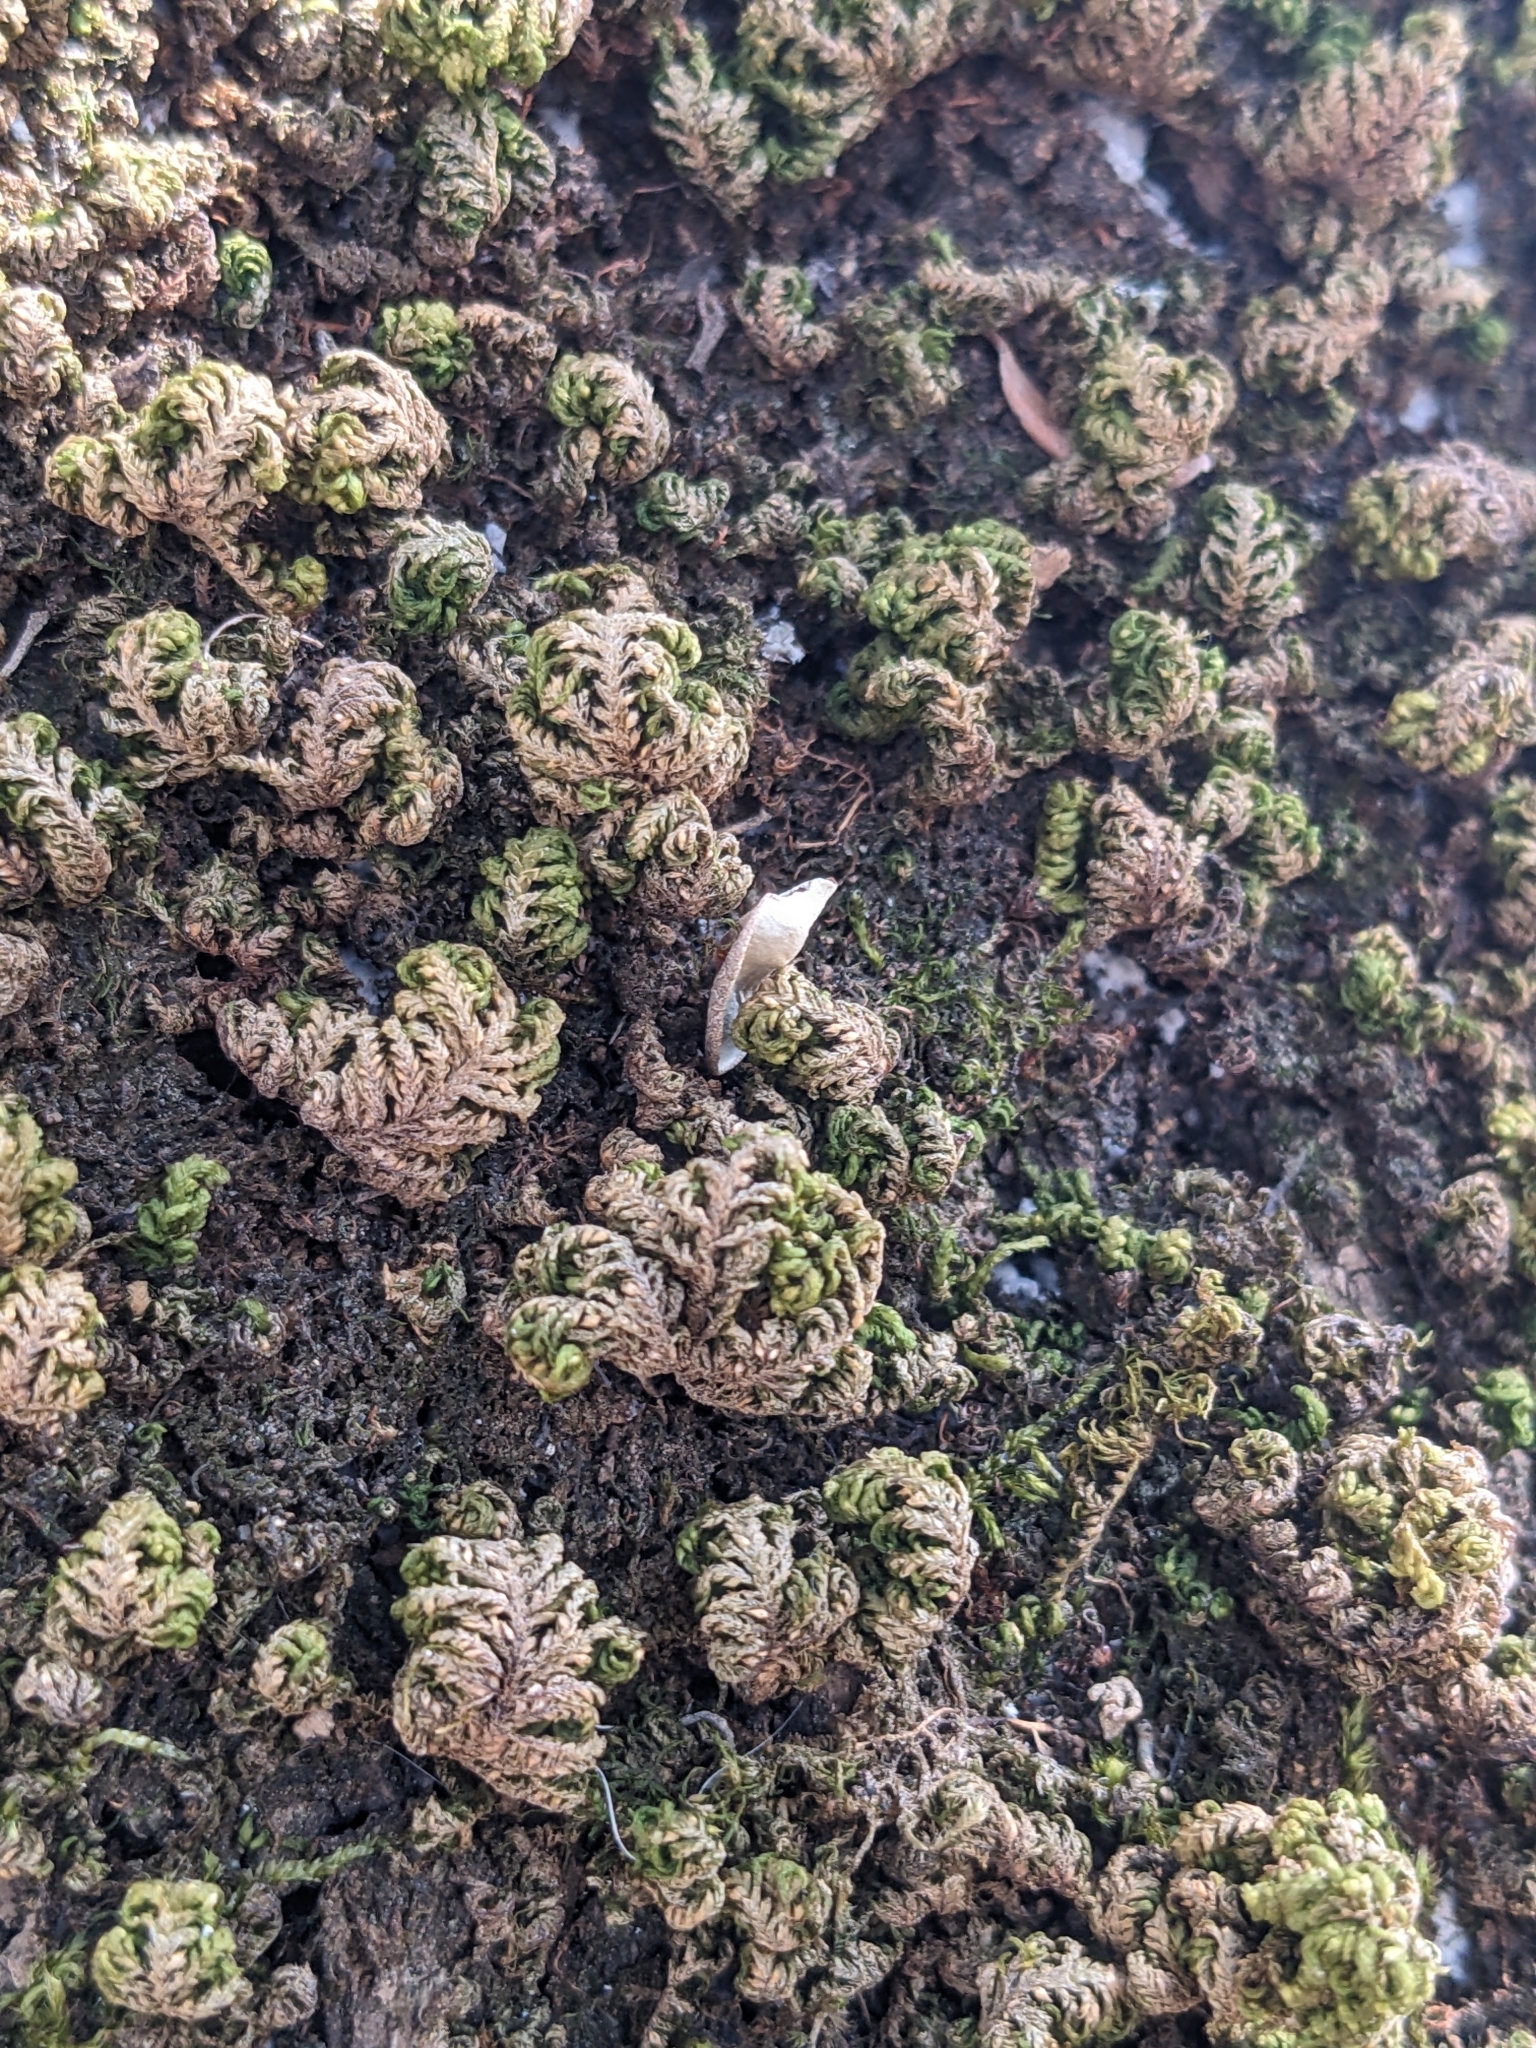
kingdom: Plantae
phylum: Bryophyta
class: Bryopsida
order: Hypnales
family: Neckeraceae
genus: Leptodon
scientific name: Leptodon smithii
